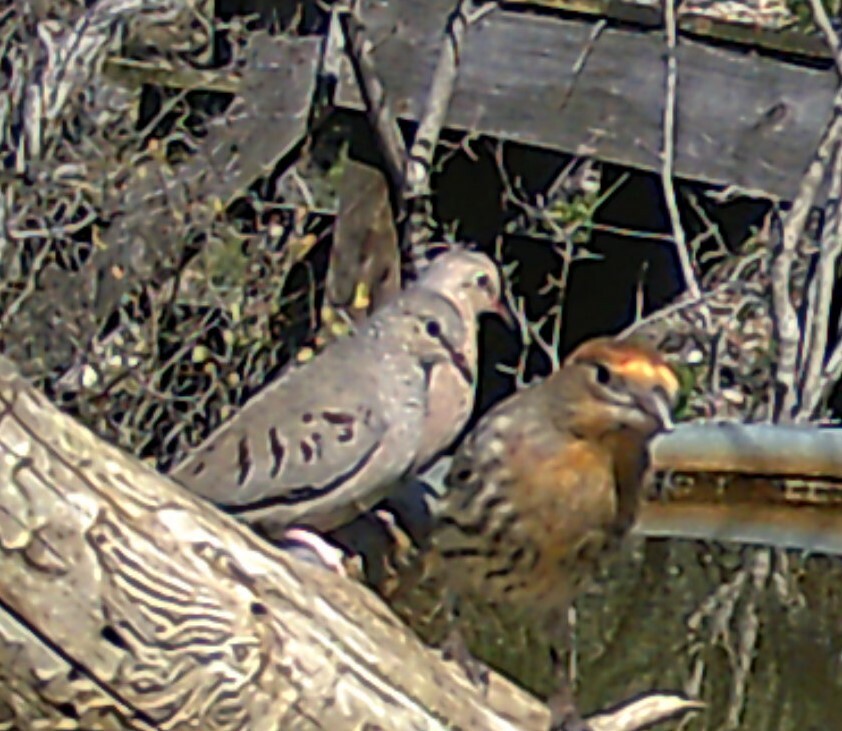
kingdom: Animalia
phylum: Chordata
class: Aves
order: Columbiformes
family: Columbidae
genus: Columbina
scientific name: Columbina passerina
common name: Common ground-dove
